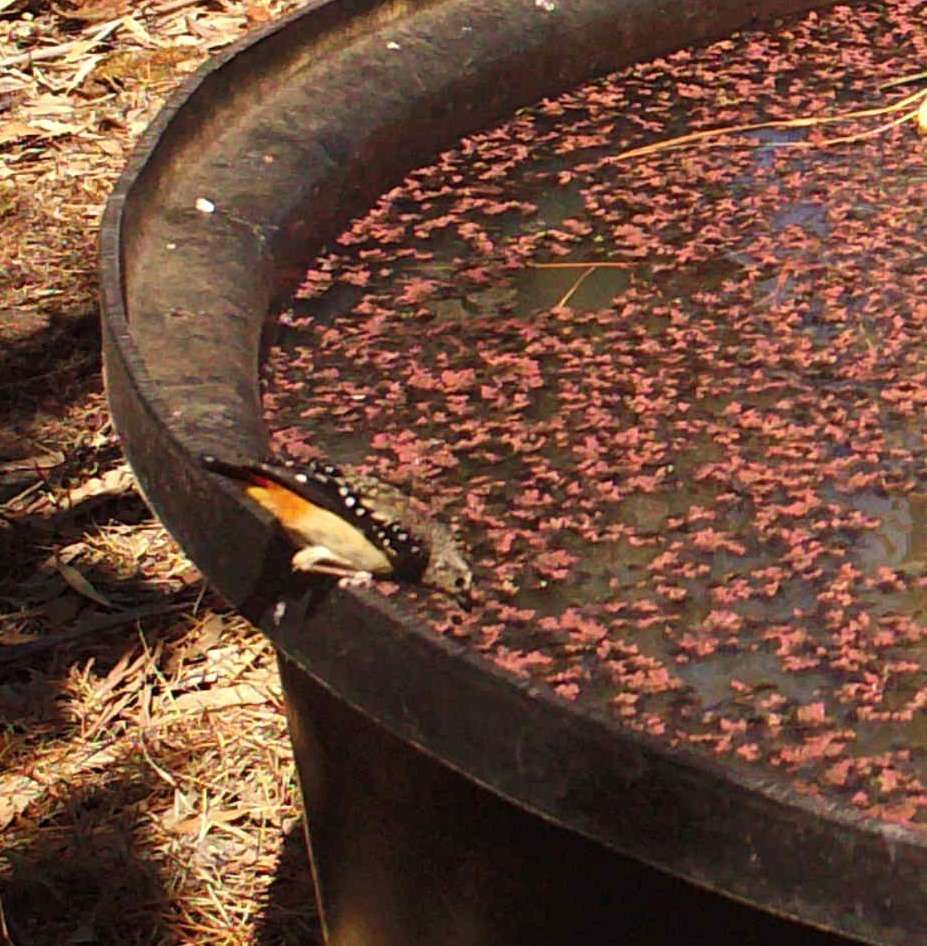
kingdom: Animalia
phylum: Chordata
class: Aves
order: Passeriformes
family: Pardalotidae
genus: Pardalotus
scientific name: Pardalotus punctatus
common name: Spotted pardalote
